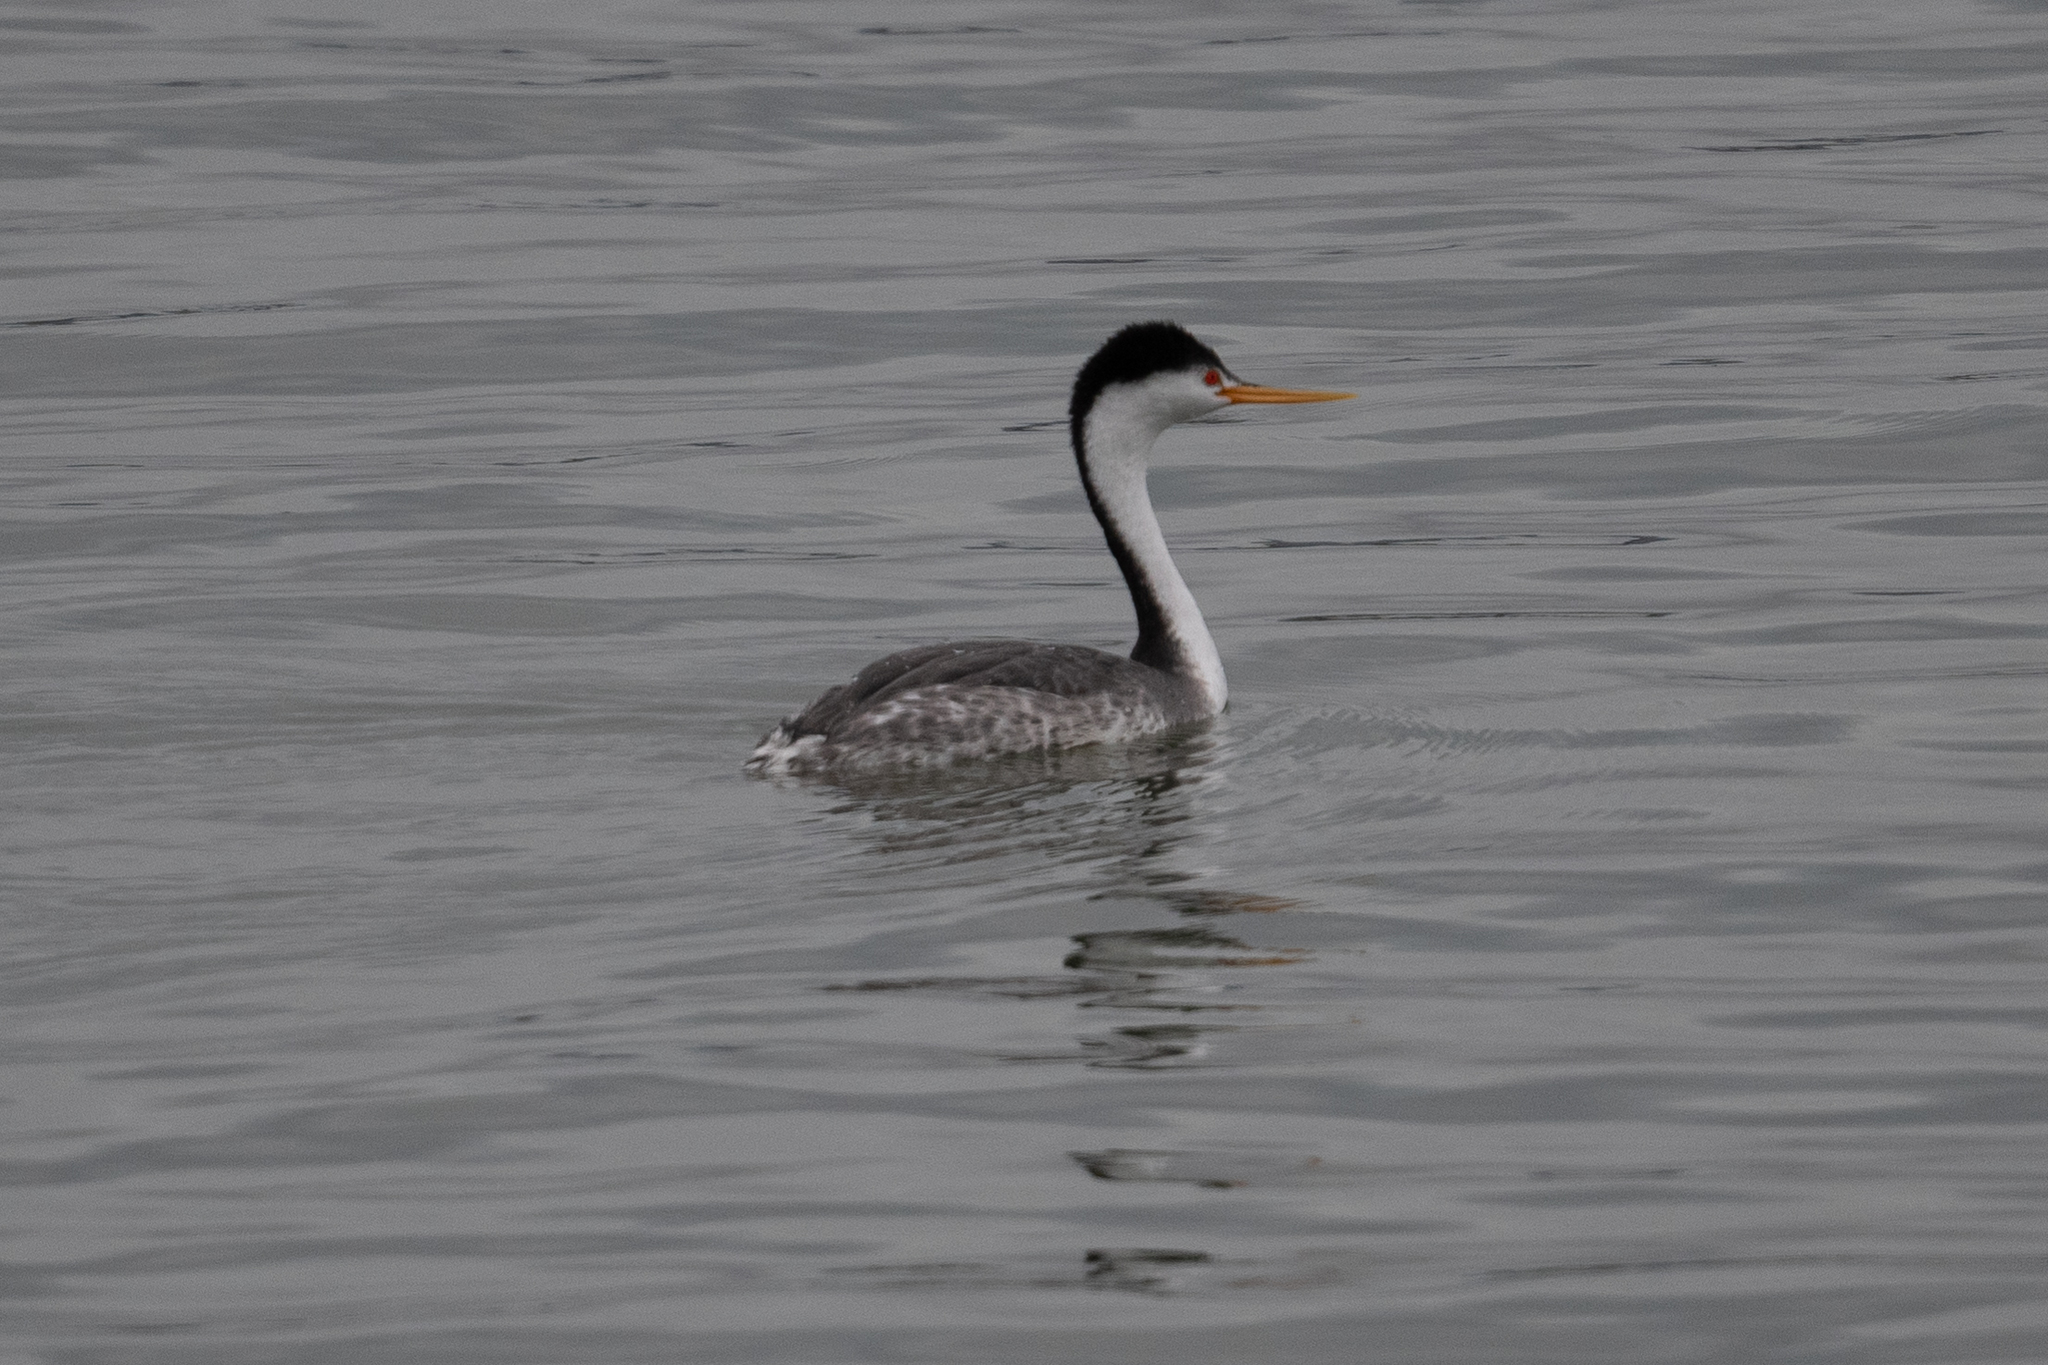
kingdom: Animalia
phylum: Chordata
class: Aves
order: Podicipediformes
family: Podicipedidae
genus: Aechmophorus
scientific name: Aechmophorus clarkii
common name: Clark's grebe
